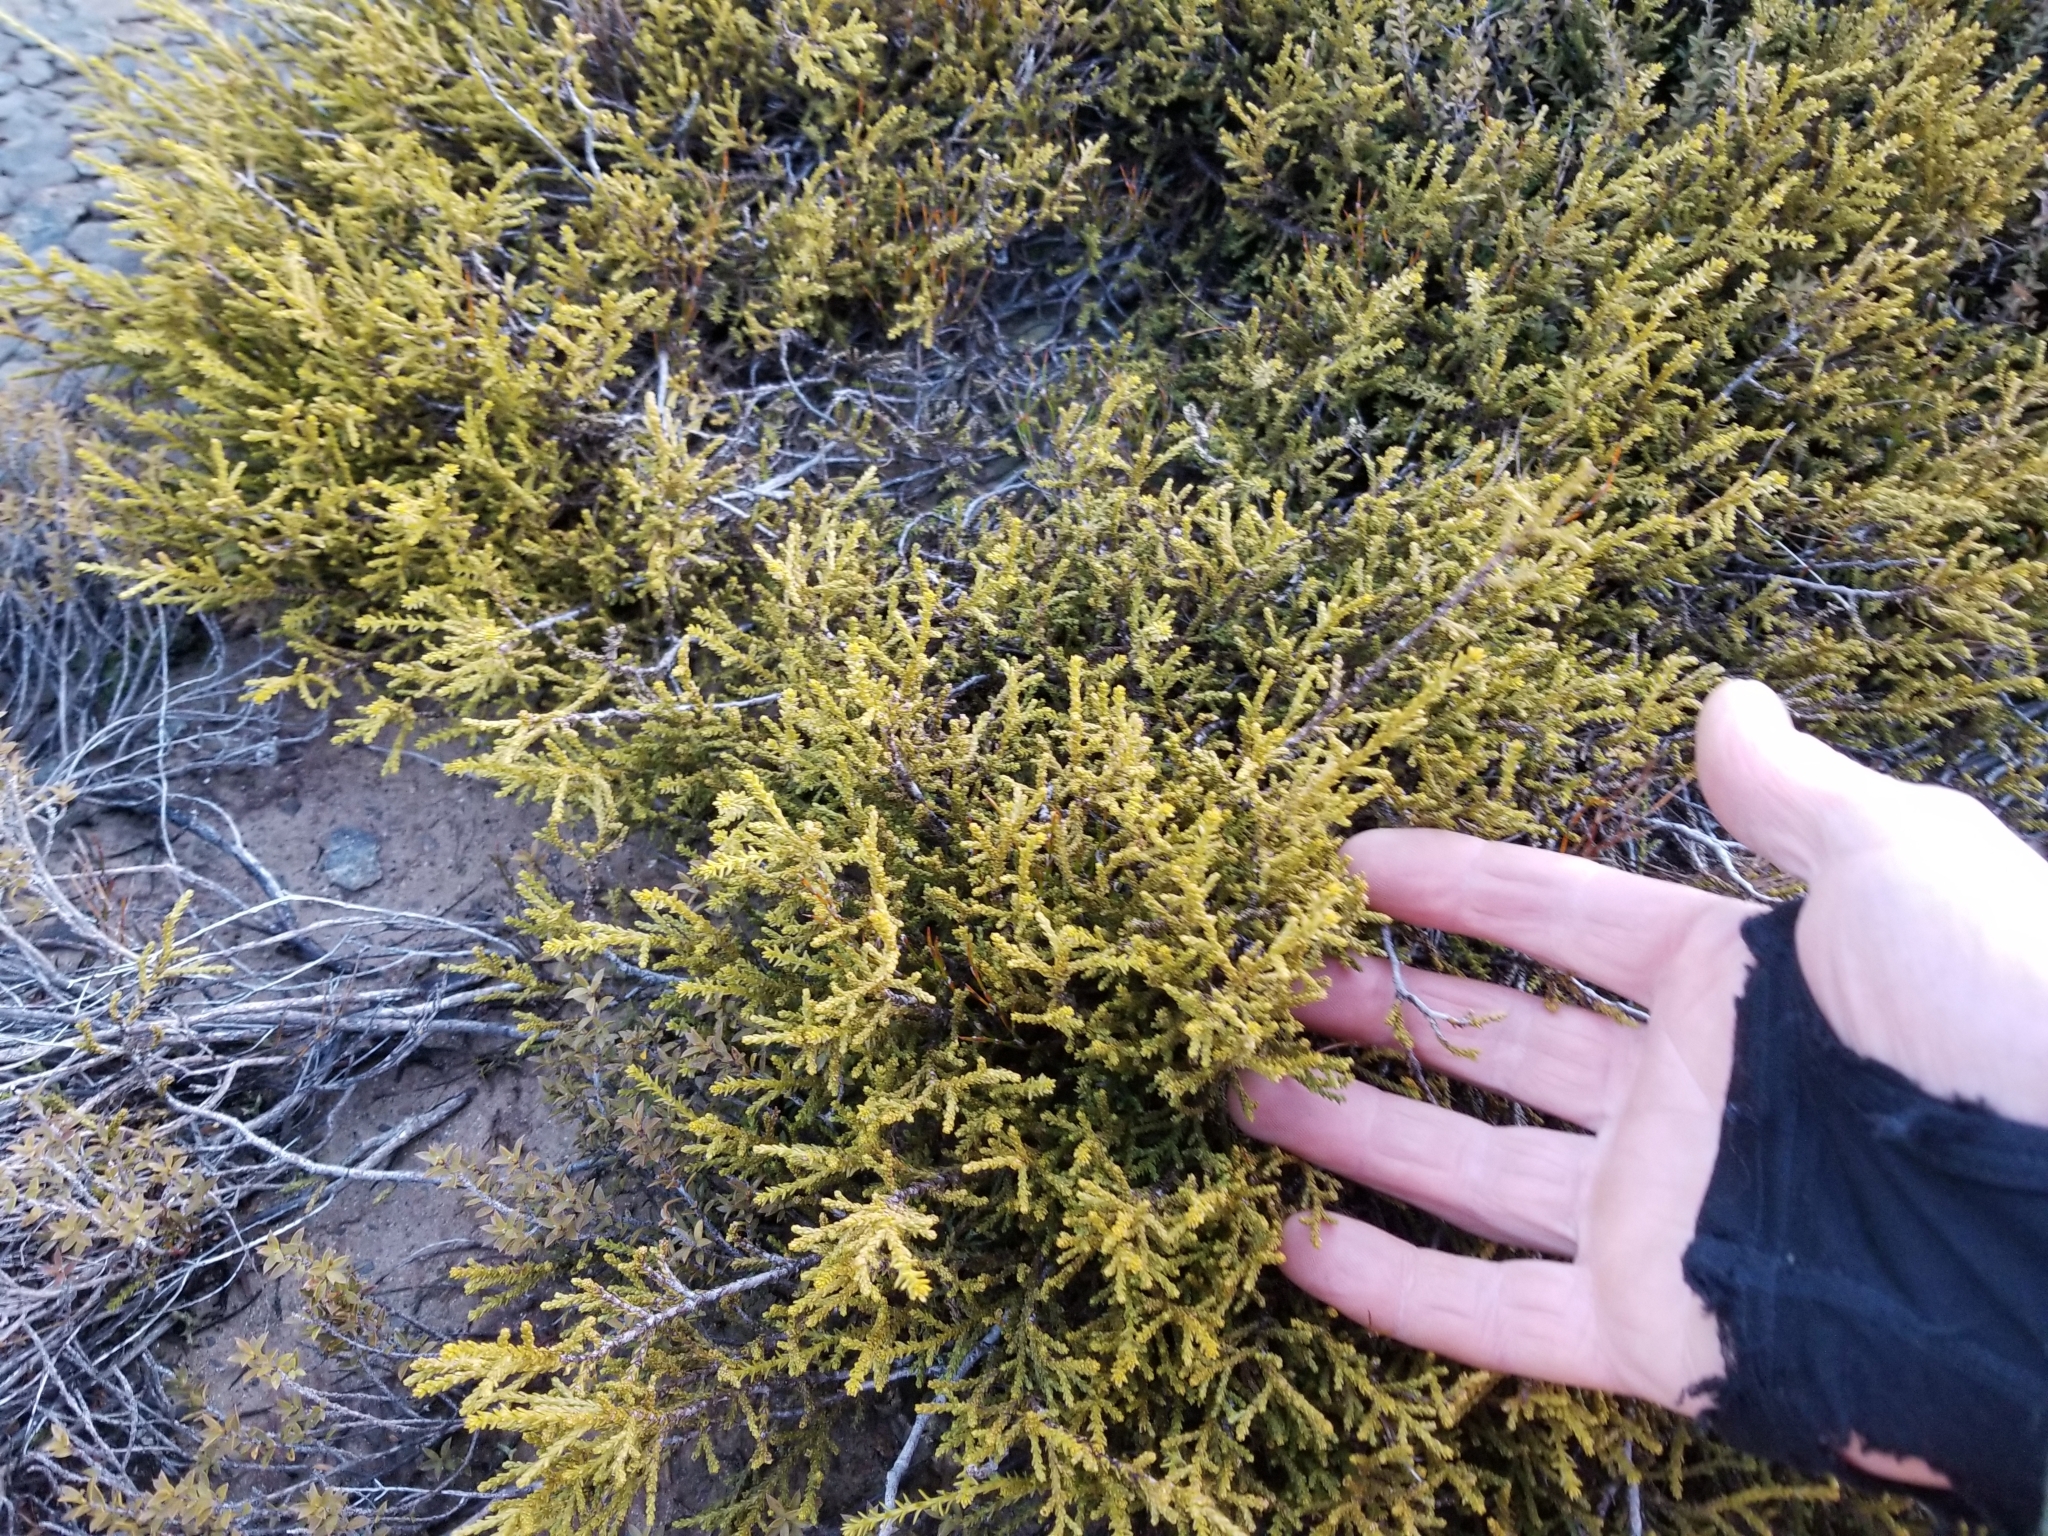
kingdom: Plantae
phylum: Tracheophyta
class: Pinopsida
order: Pinales
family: Podocarpaceae
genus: Lepidothamnus
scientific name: Lepidothamnus laxifolius
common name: Pygmy pine
